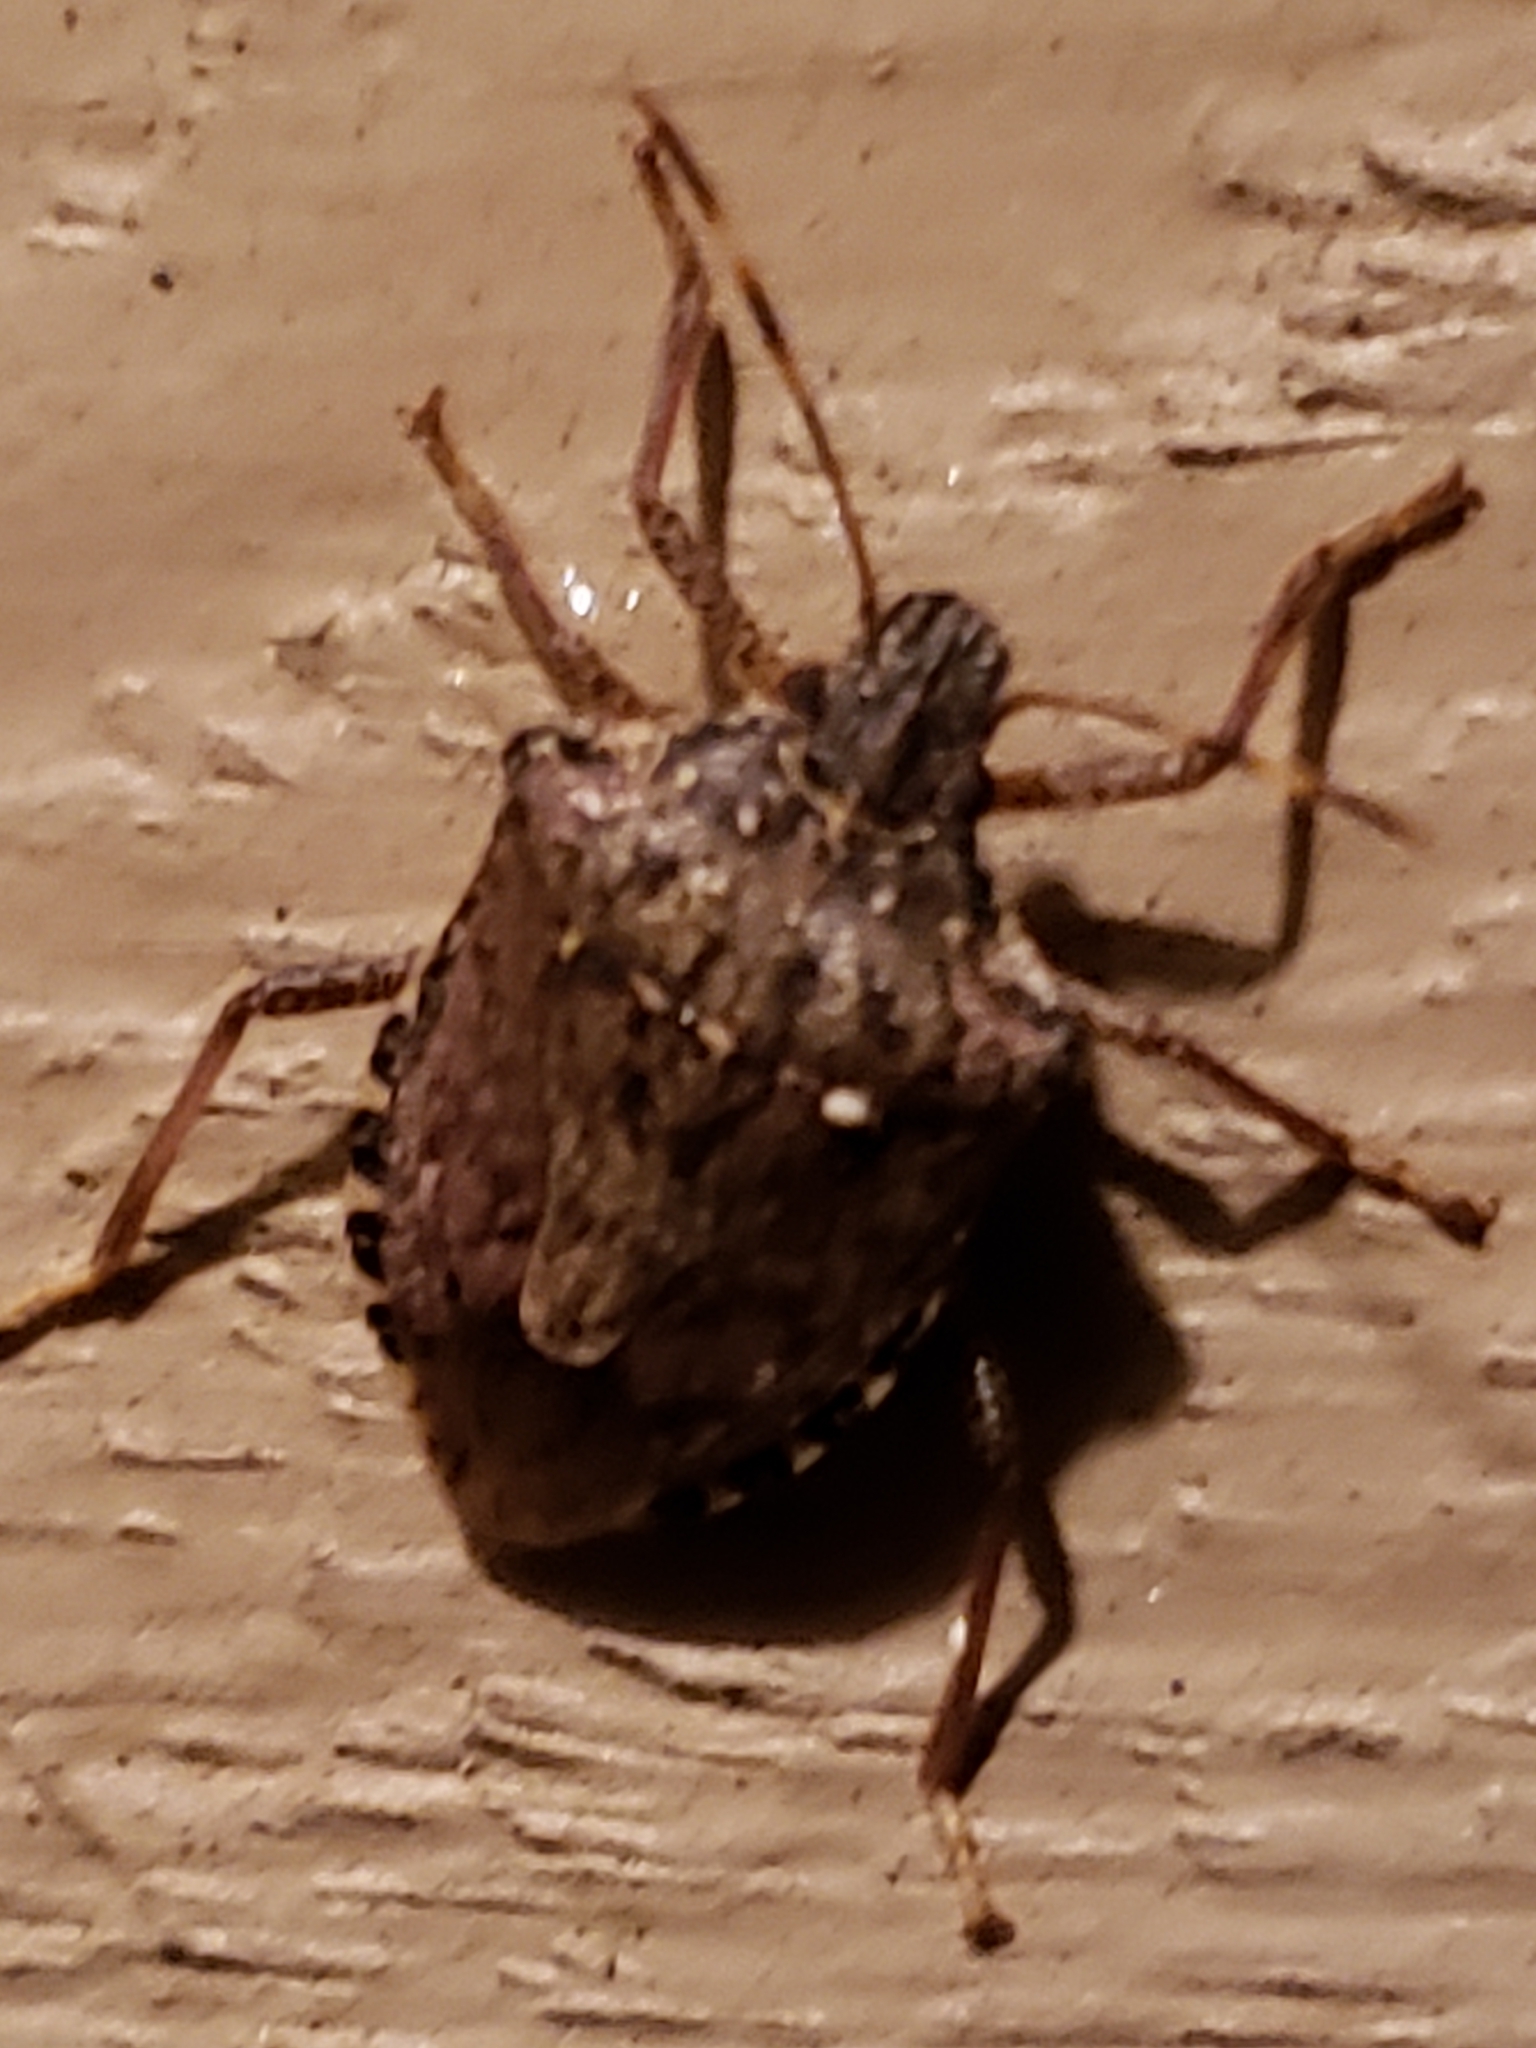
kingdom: Animalia
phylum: Arthropoda
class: Insecta
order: Hemiptera
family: Pentatomidae
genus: Halyomorpha
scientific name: Halyomorpha halys
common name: Brown marmorated stink bug
